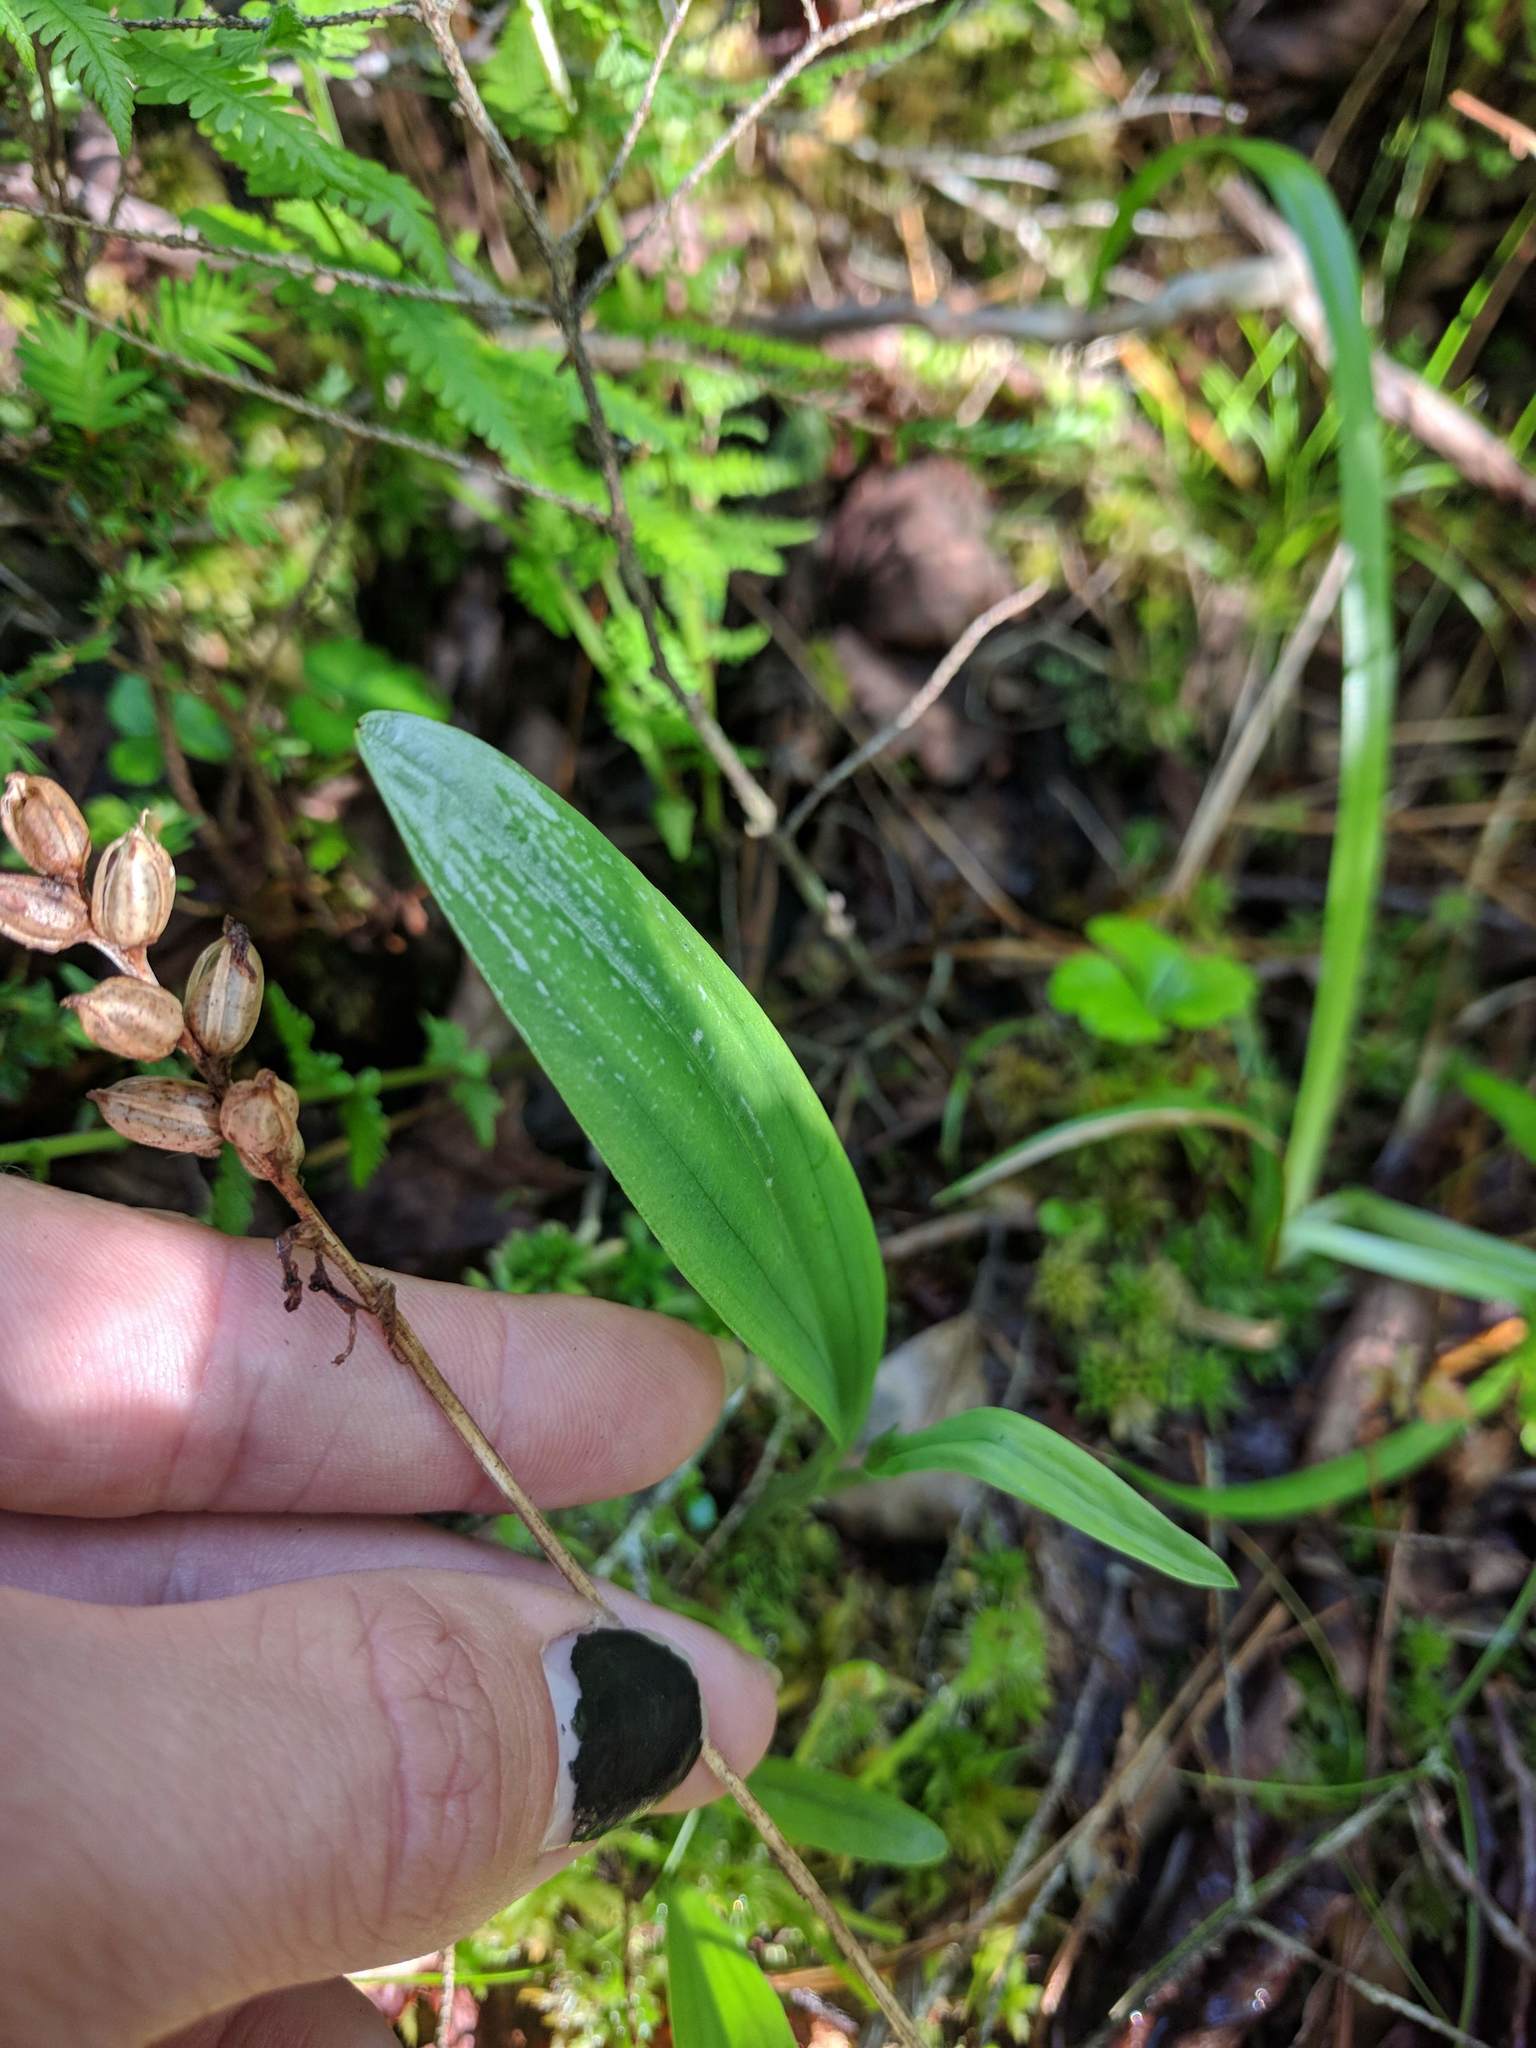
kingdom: Plantae
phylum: Tracheophyta
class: Liliopsida
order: Asparagales
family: Orchidaceae
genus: Platanthera
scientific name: Platanthera clavellata
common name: Club-spur orchid
